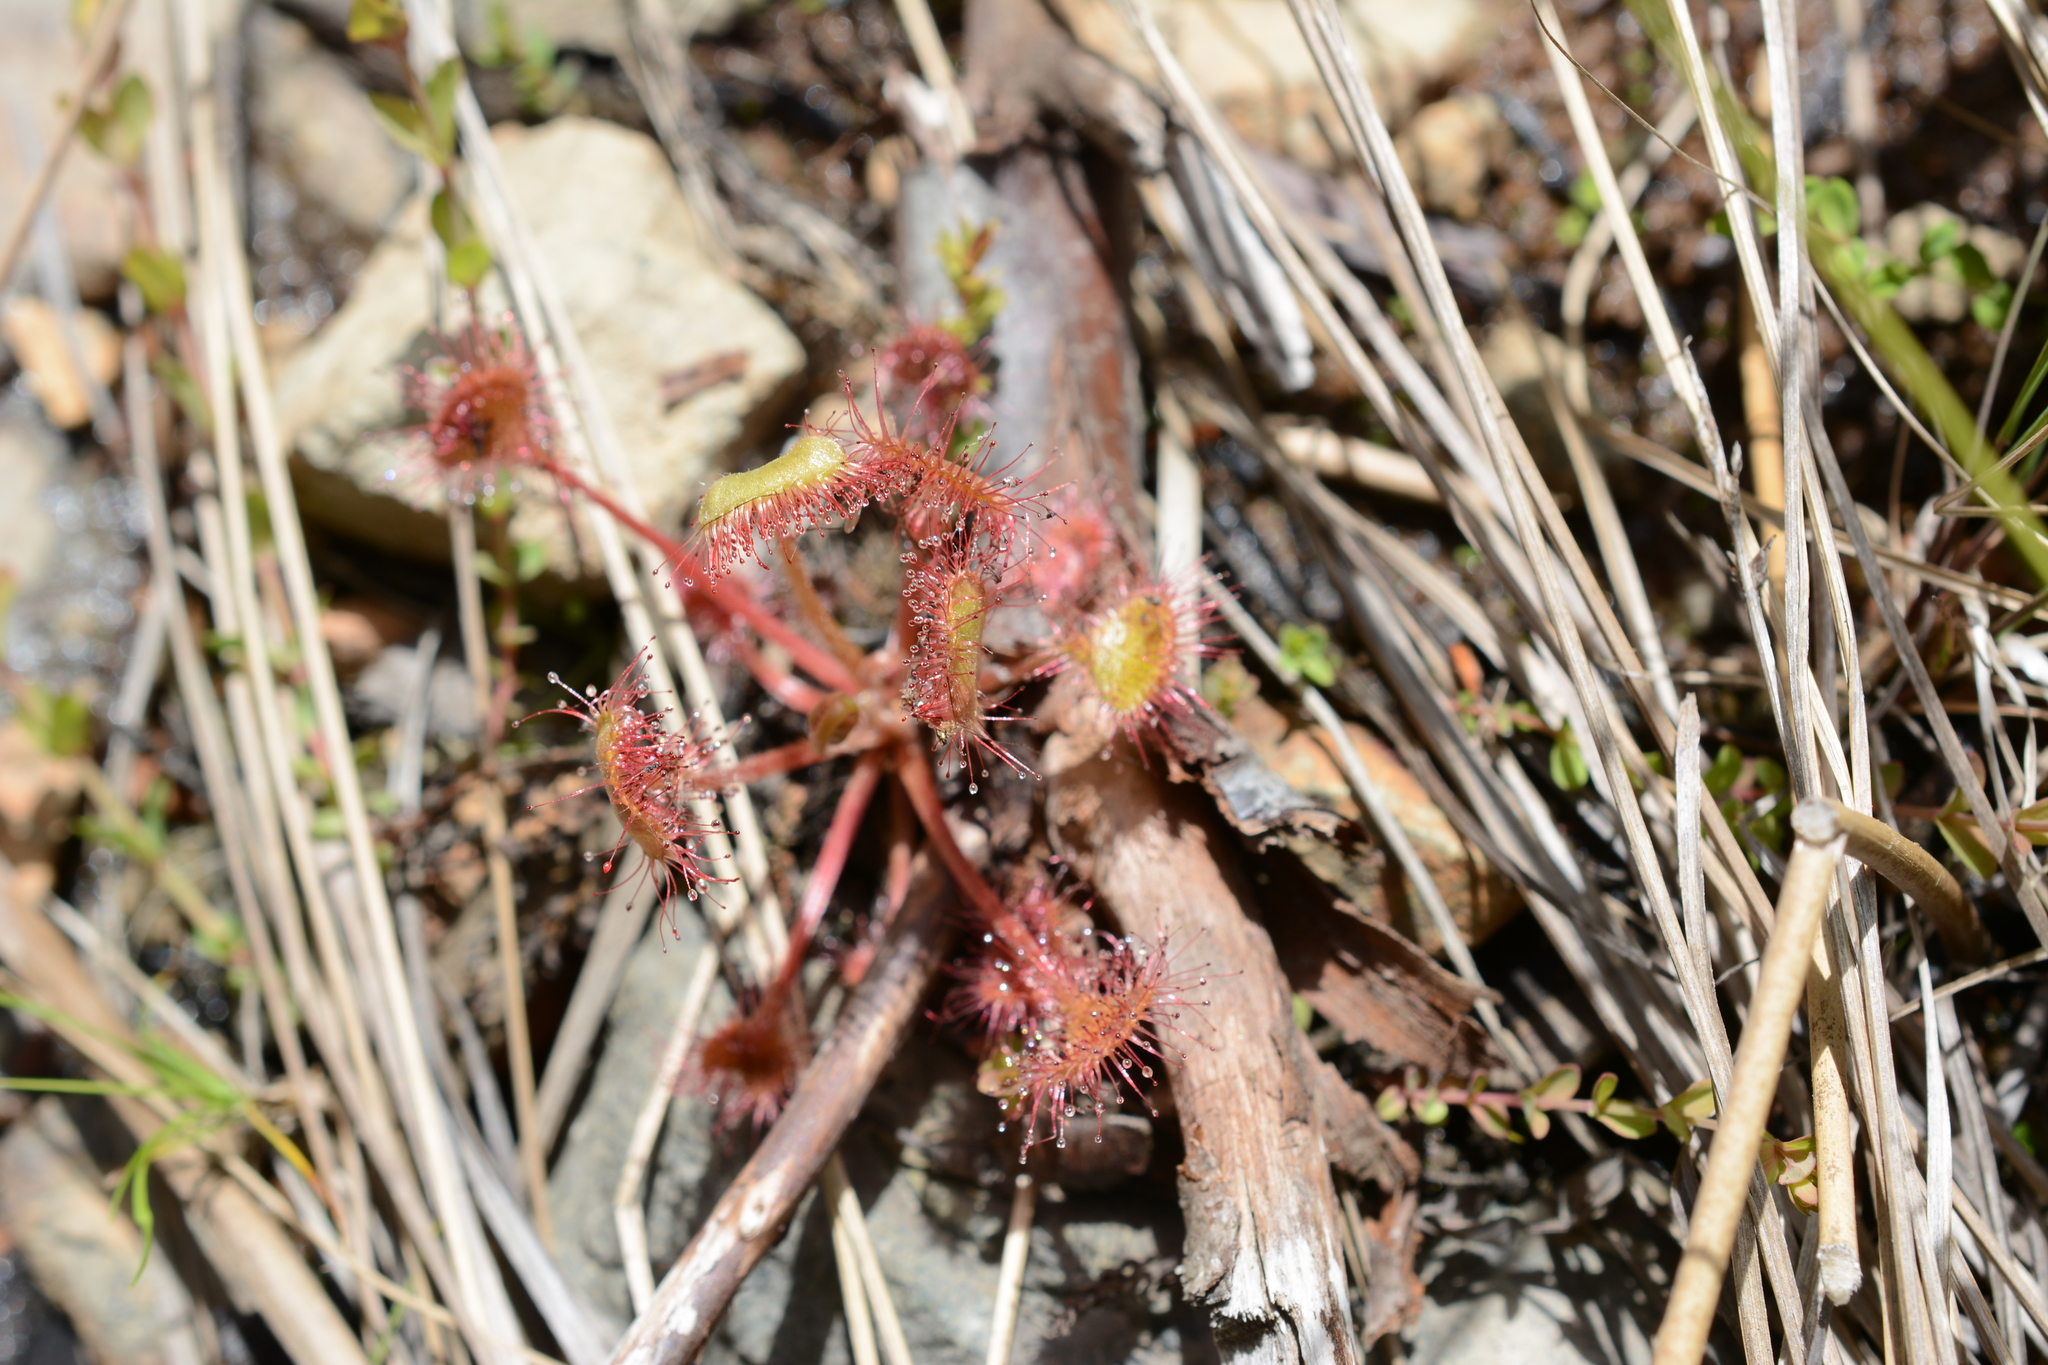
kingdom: Plantae
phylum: Tracheophyta
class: Magnoliopsida
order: Caryophyllales
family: Droseraceae
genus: Drosera
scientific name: Drosera rotundifolia
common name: Round-leaved sundew
